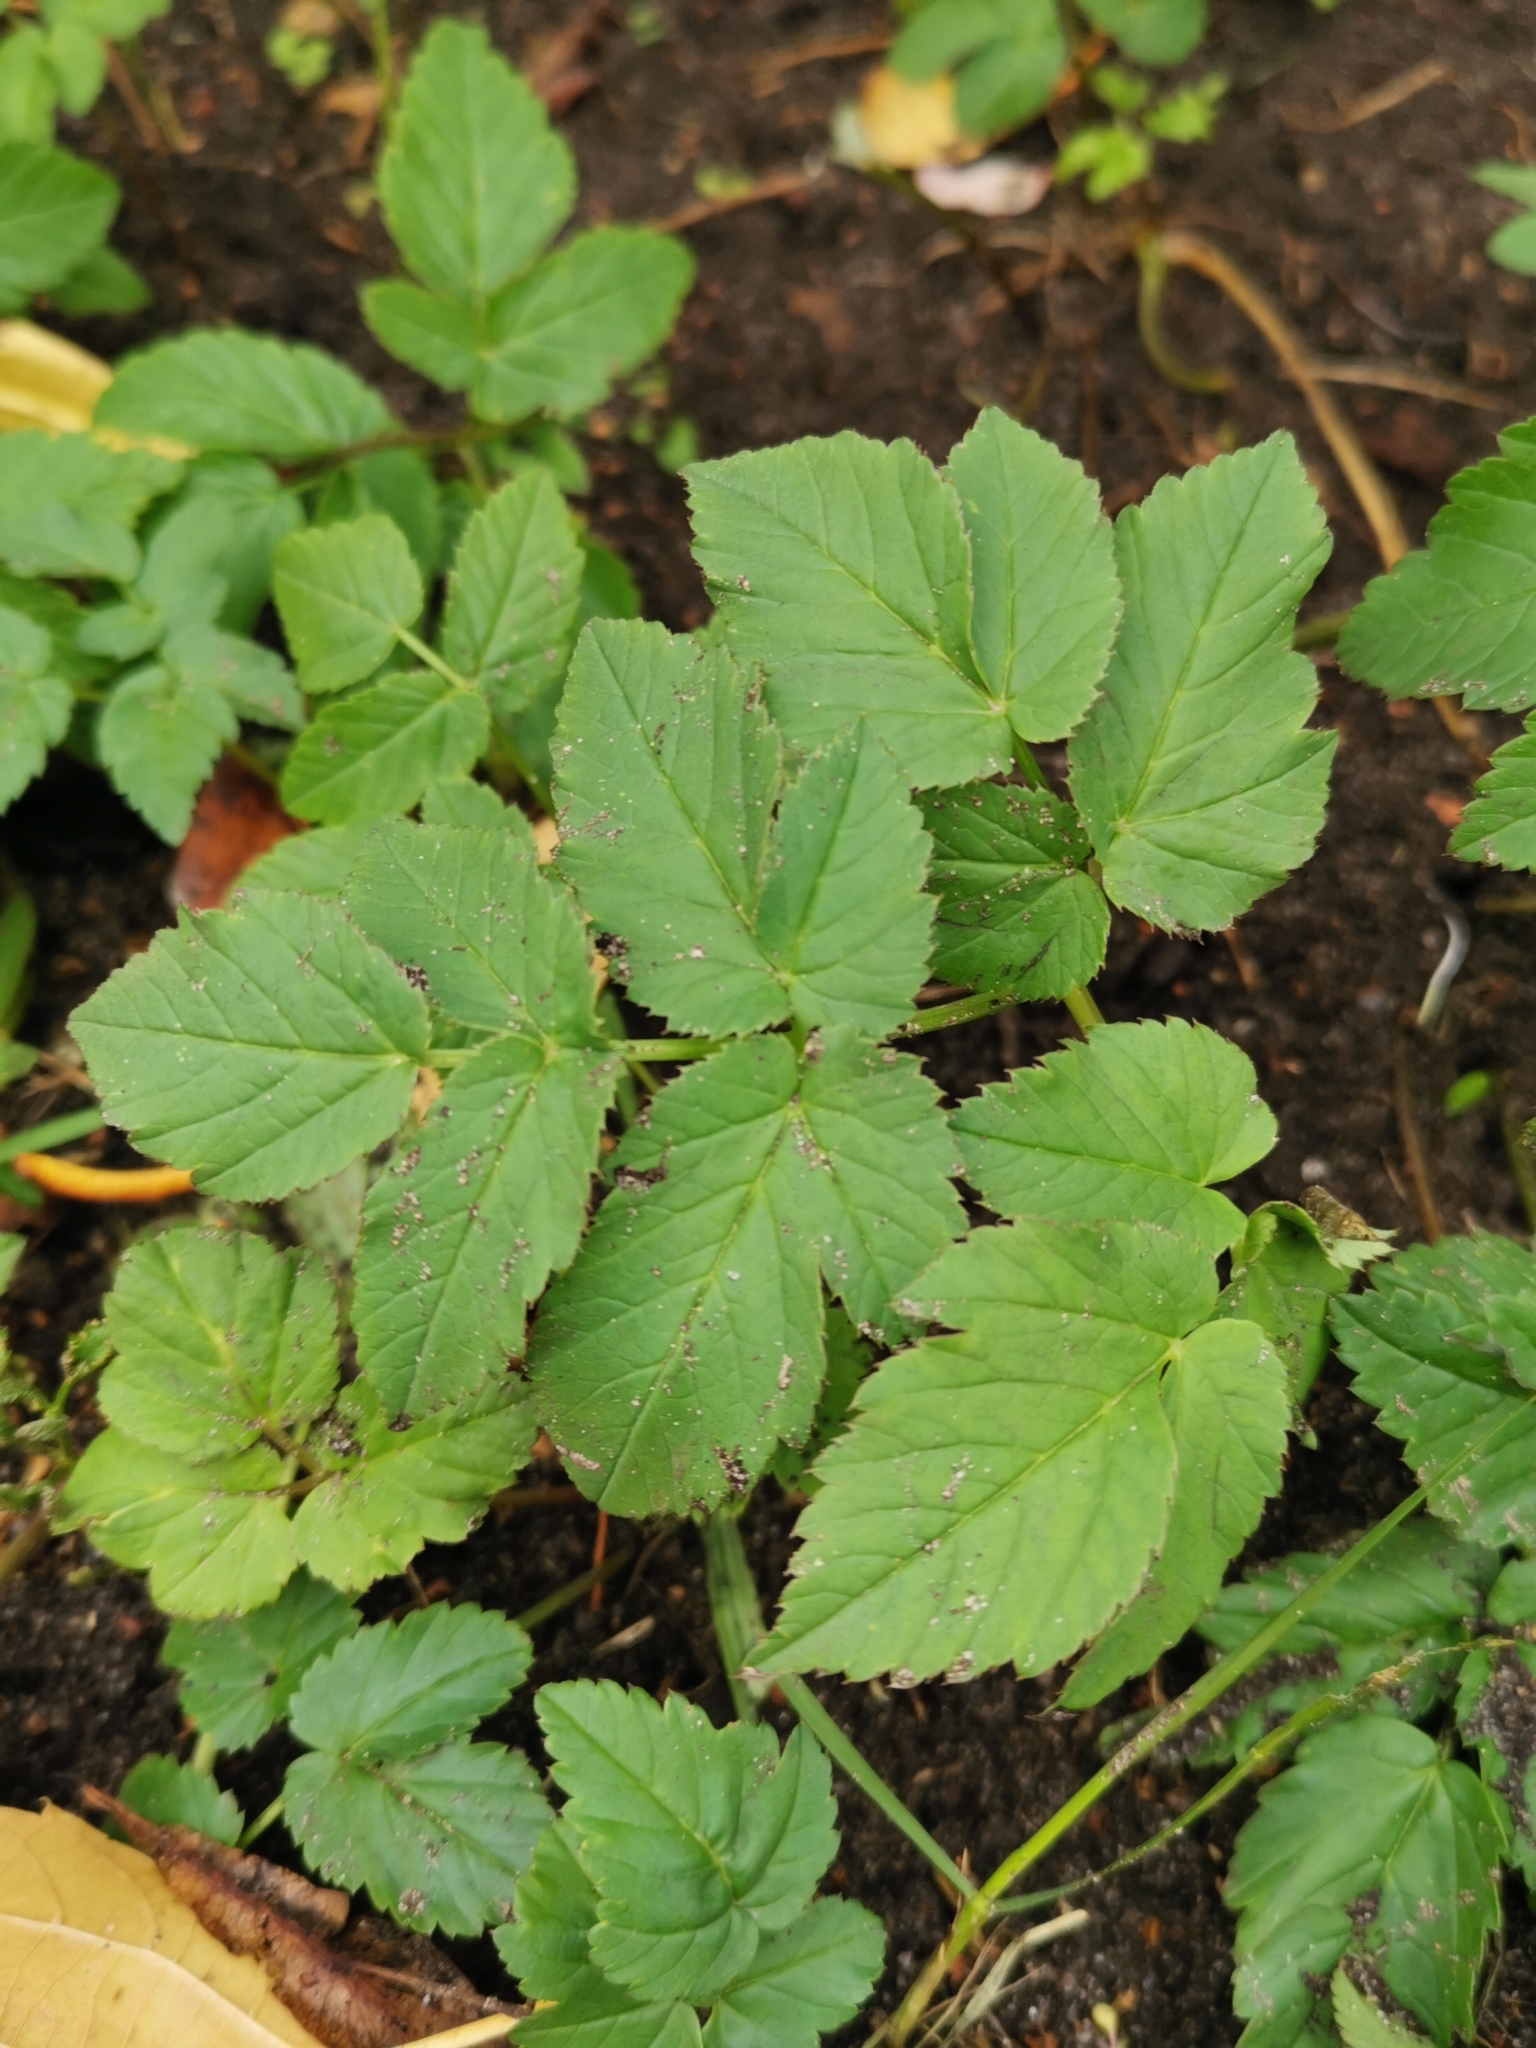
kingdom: Plantae
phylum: Tracheophyta
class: Magnoliopsida
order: Apiales
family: Apiaceae
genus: Aegopodium
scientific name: Aegopodium podagraria
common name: Ground-elder
